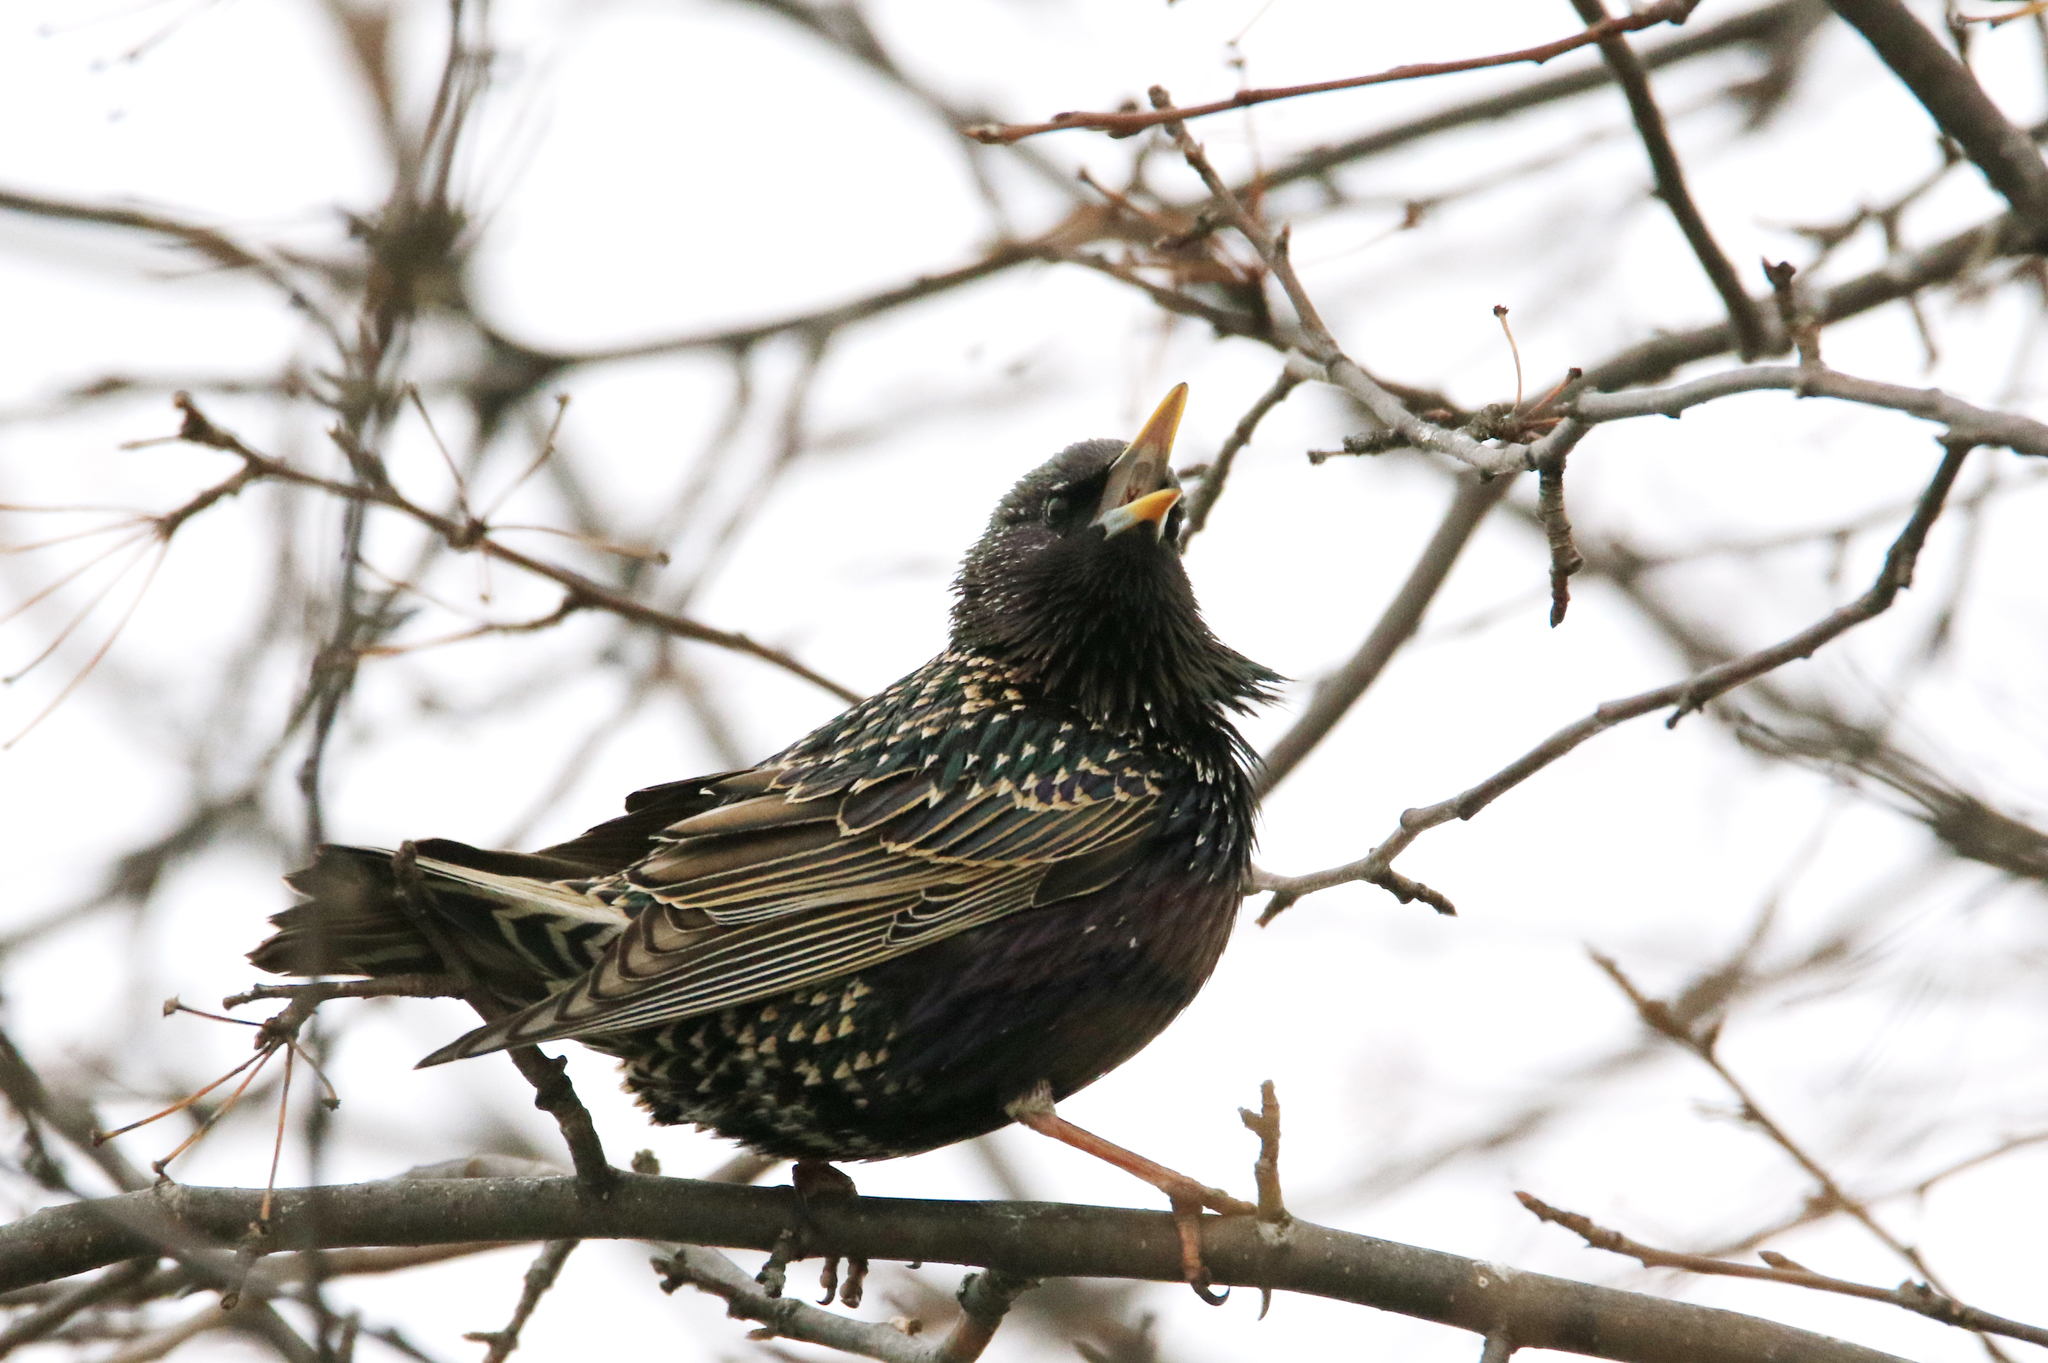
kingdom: Animalia
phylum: Chordata
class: Aves
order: Passeriformes
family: Sturnidae
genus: Sturnus
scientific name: Sturnus vulgaris
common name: Common starling
